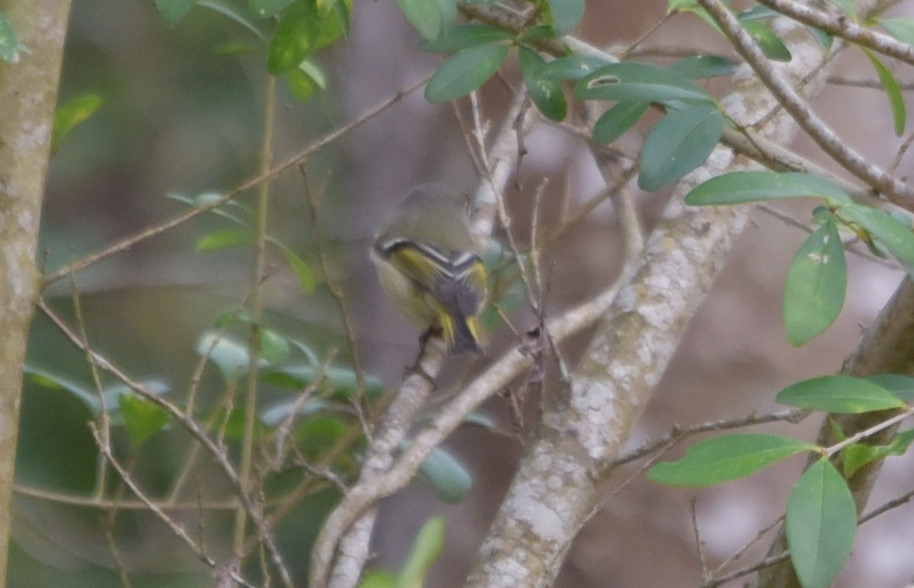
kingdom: Animalia
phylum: Chordata
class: Aves
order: Passeriformes
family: Regulidae
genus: Regulus
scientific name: Regulus calendula
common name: Ruby-crowned kinglet
